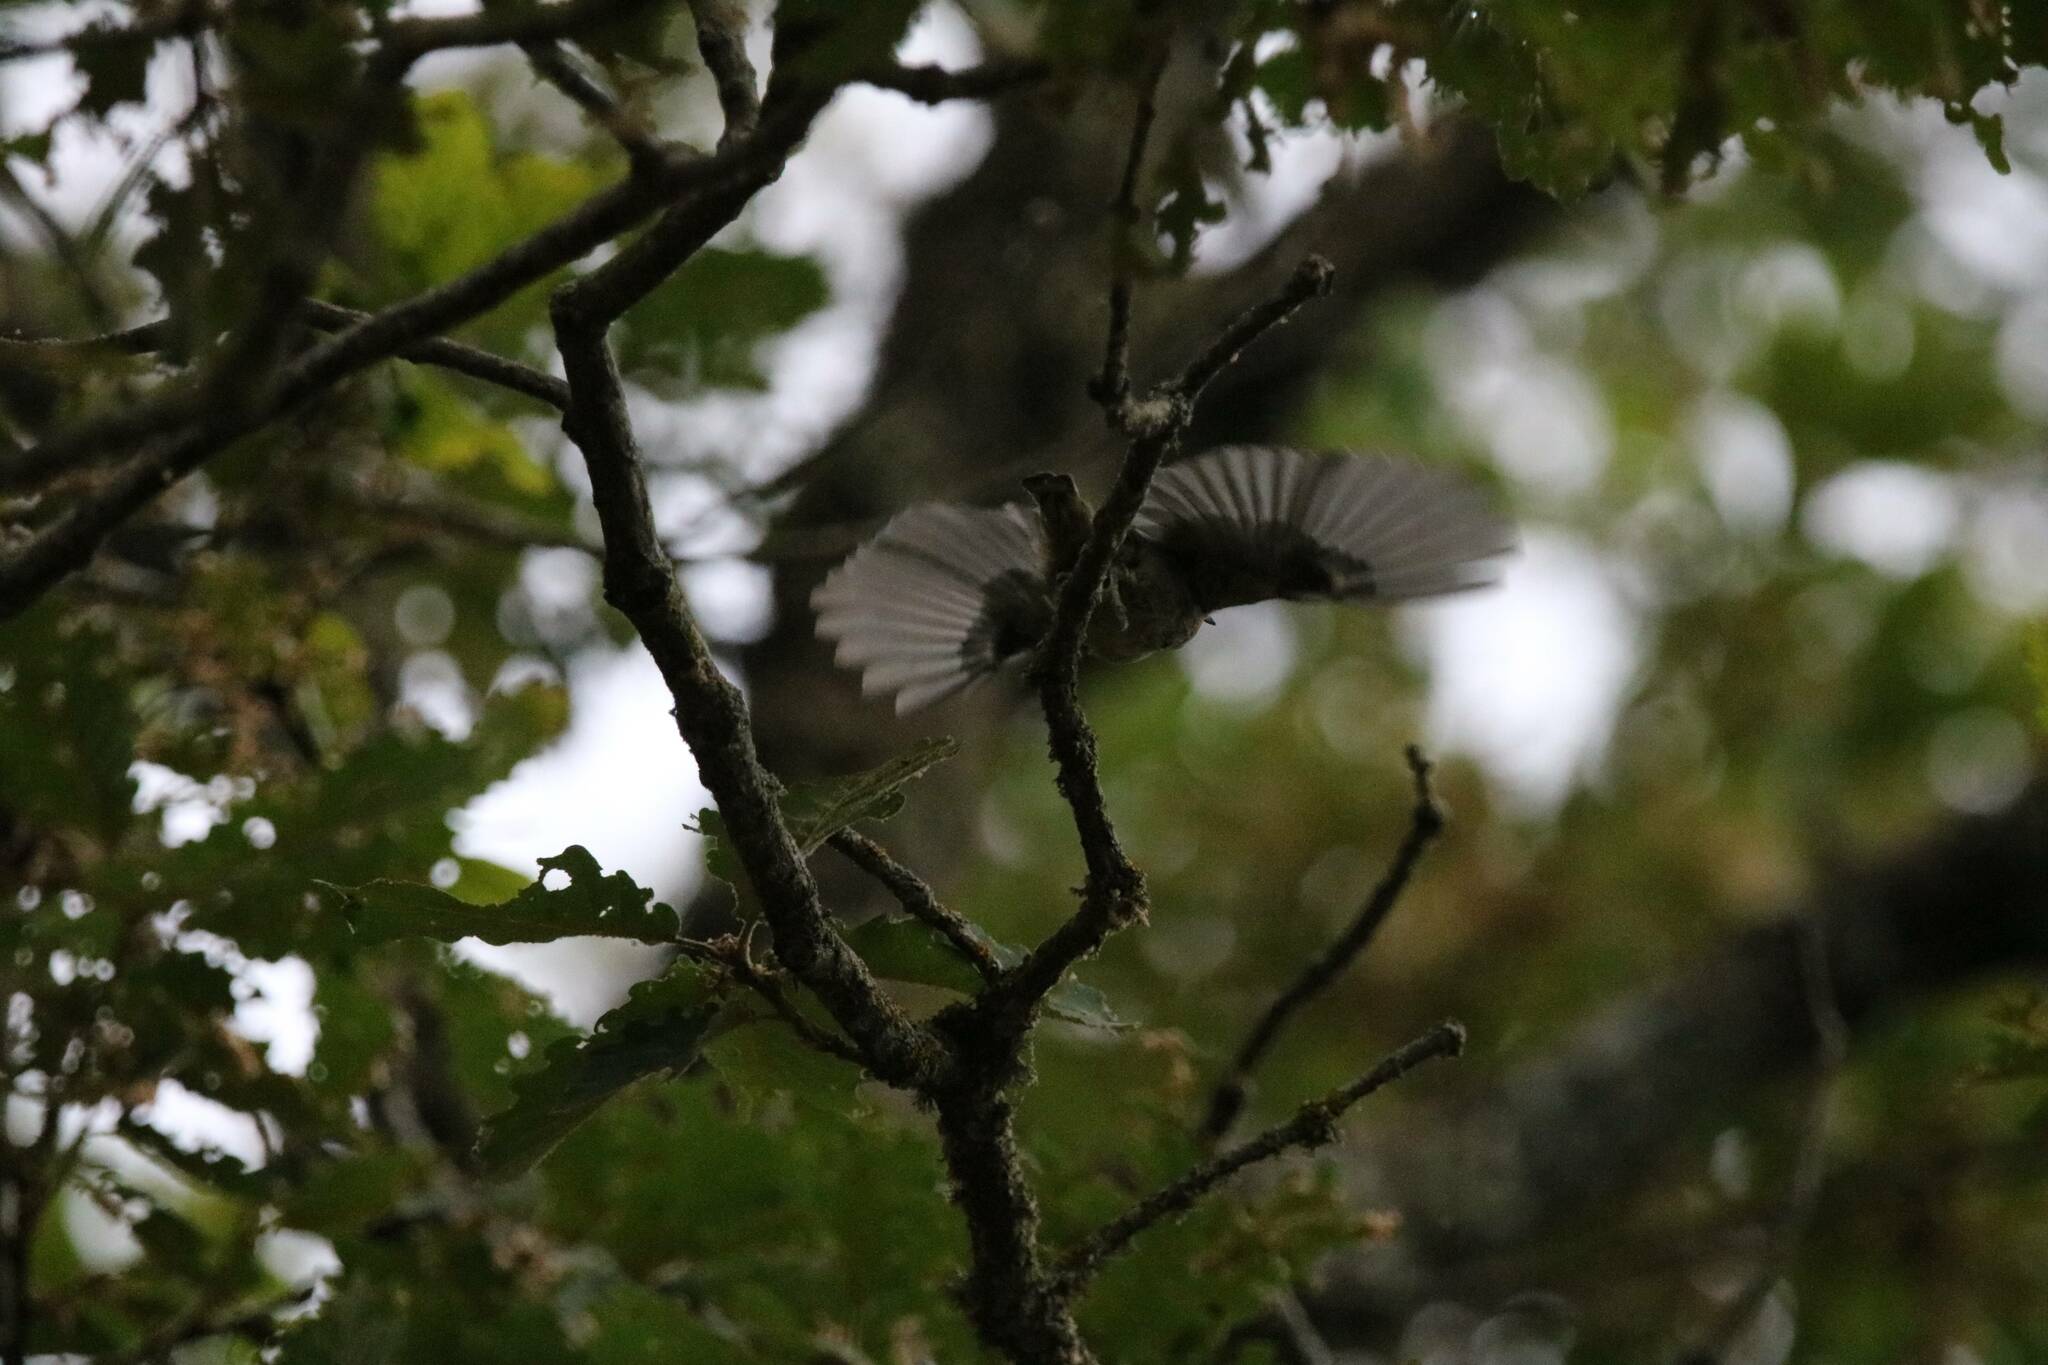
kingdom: Animalia
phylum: Chordata
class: Aves
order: Passeriformes
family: Sittidae
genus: Sitta
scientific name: Sitta ledanti
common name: Algerian nuthatch
